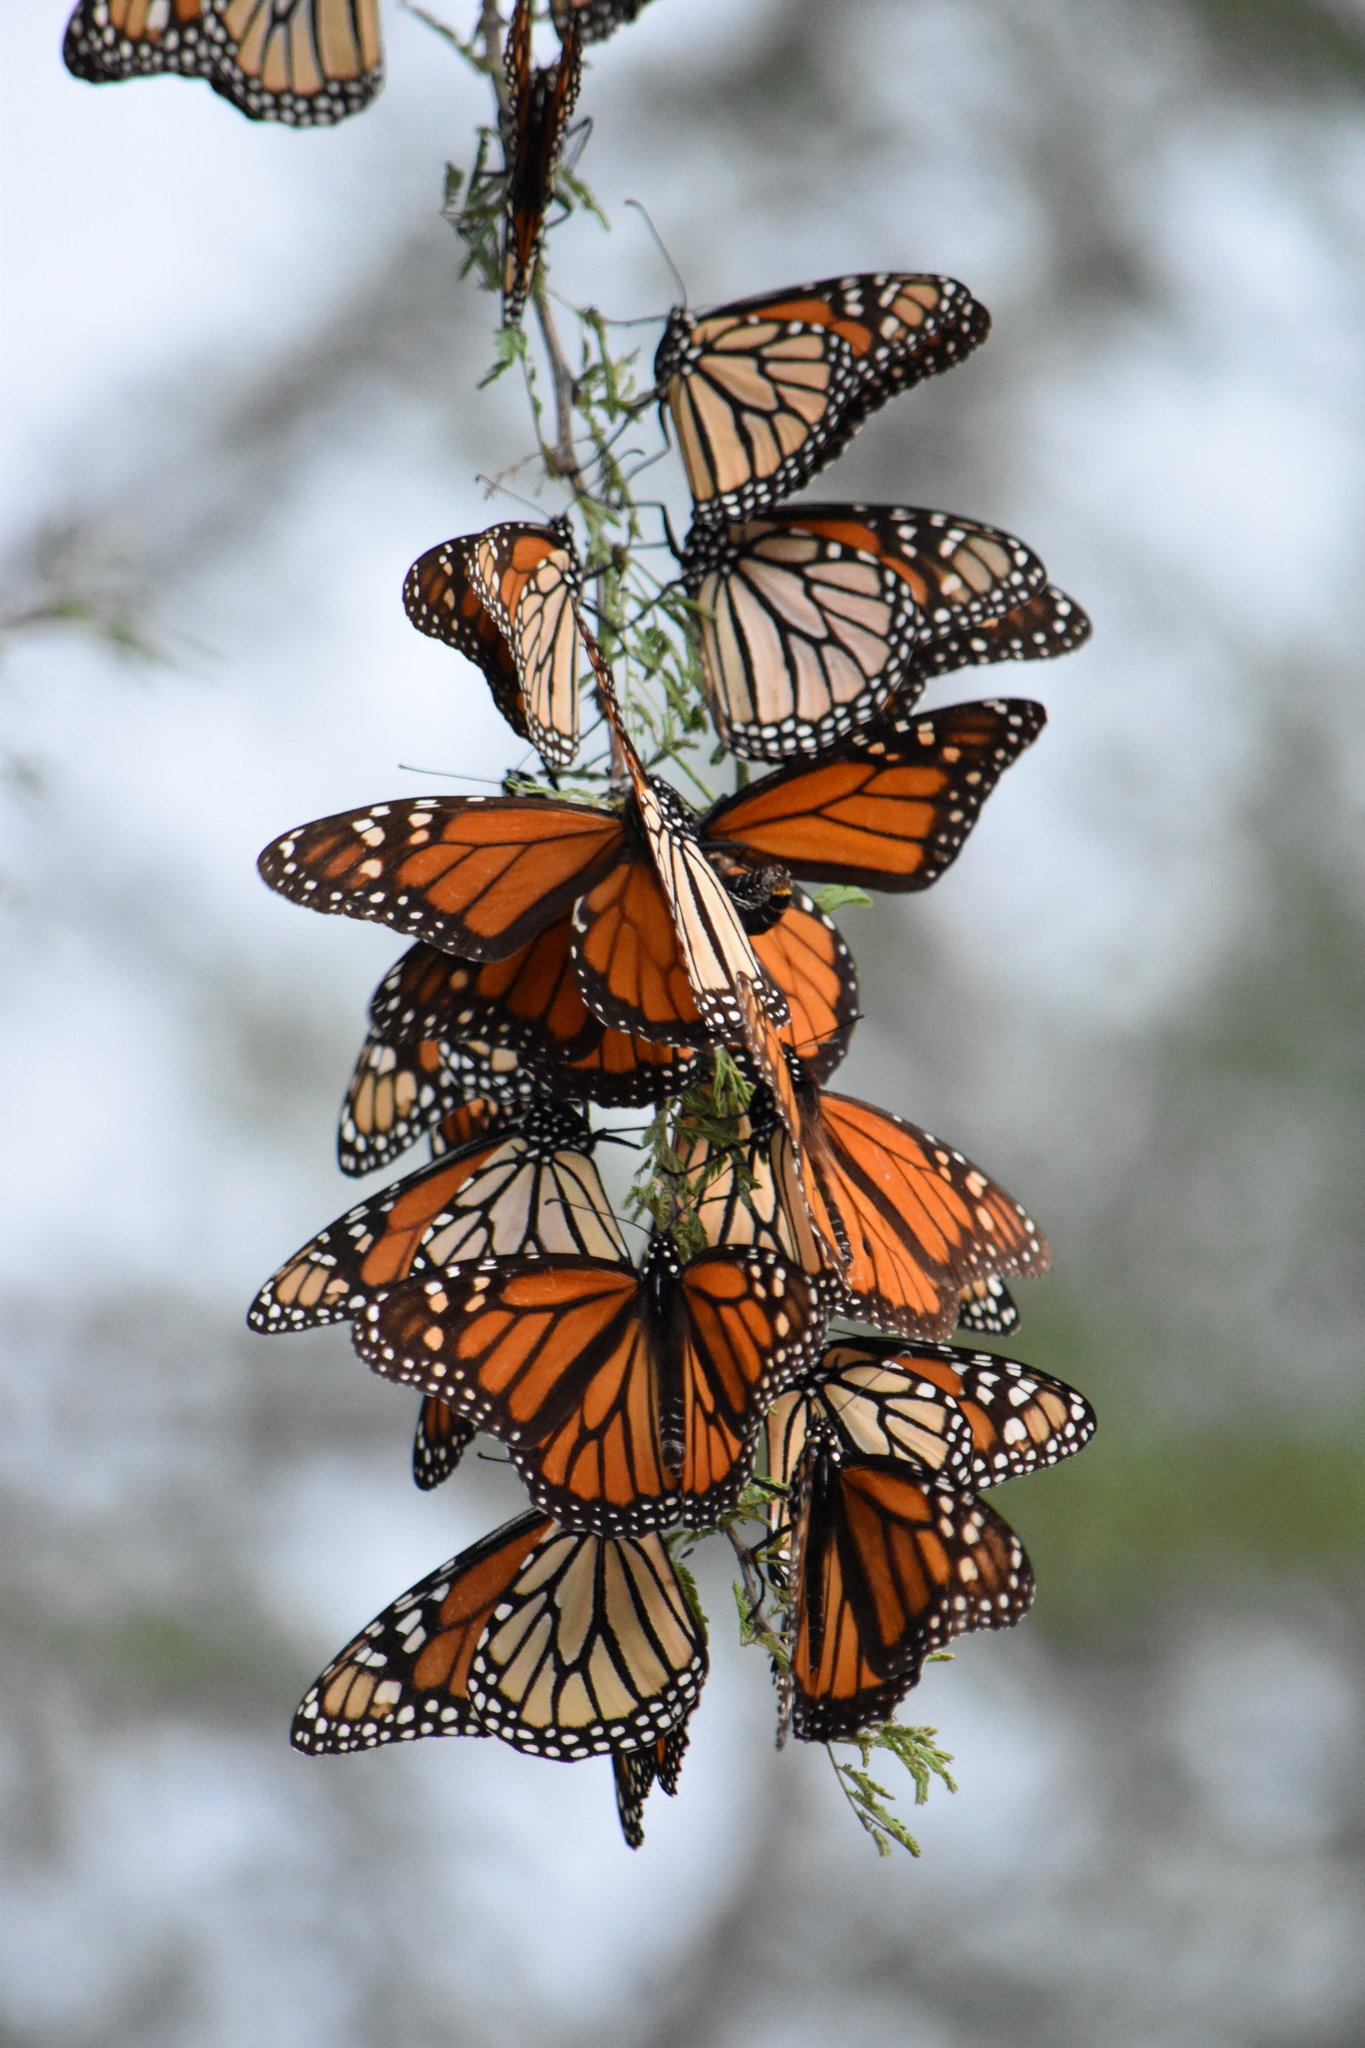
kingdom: Animalia
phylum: Arthropoda
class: Insecta
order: Lepidoptera
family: Nymphalidae
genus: Danaus
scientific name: Danaus plexippus
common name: Monarch
